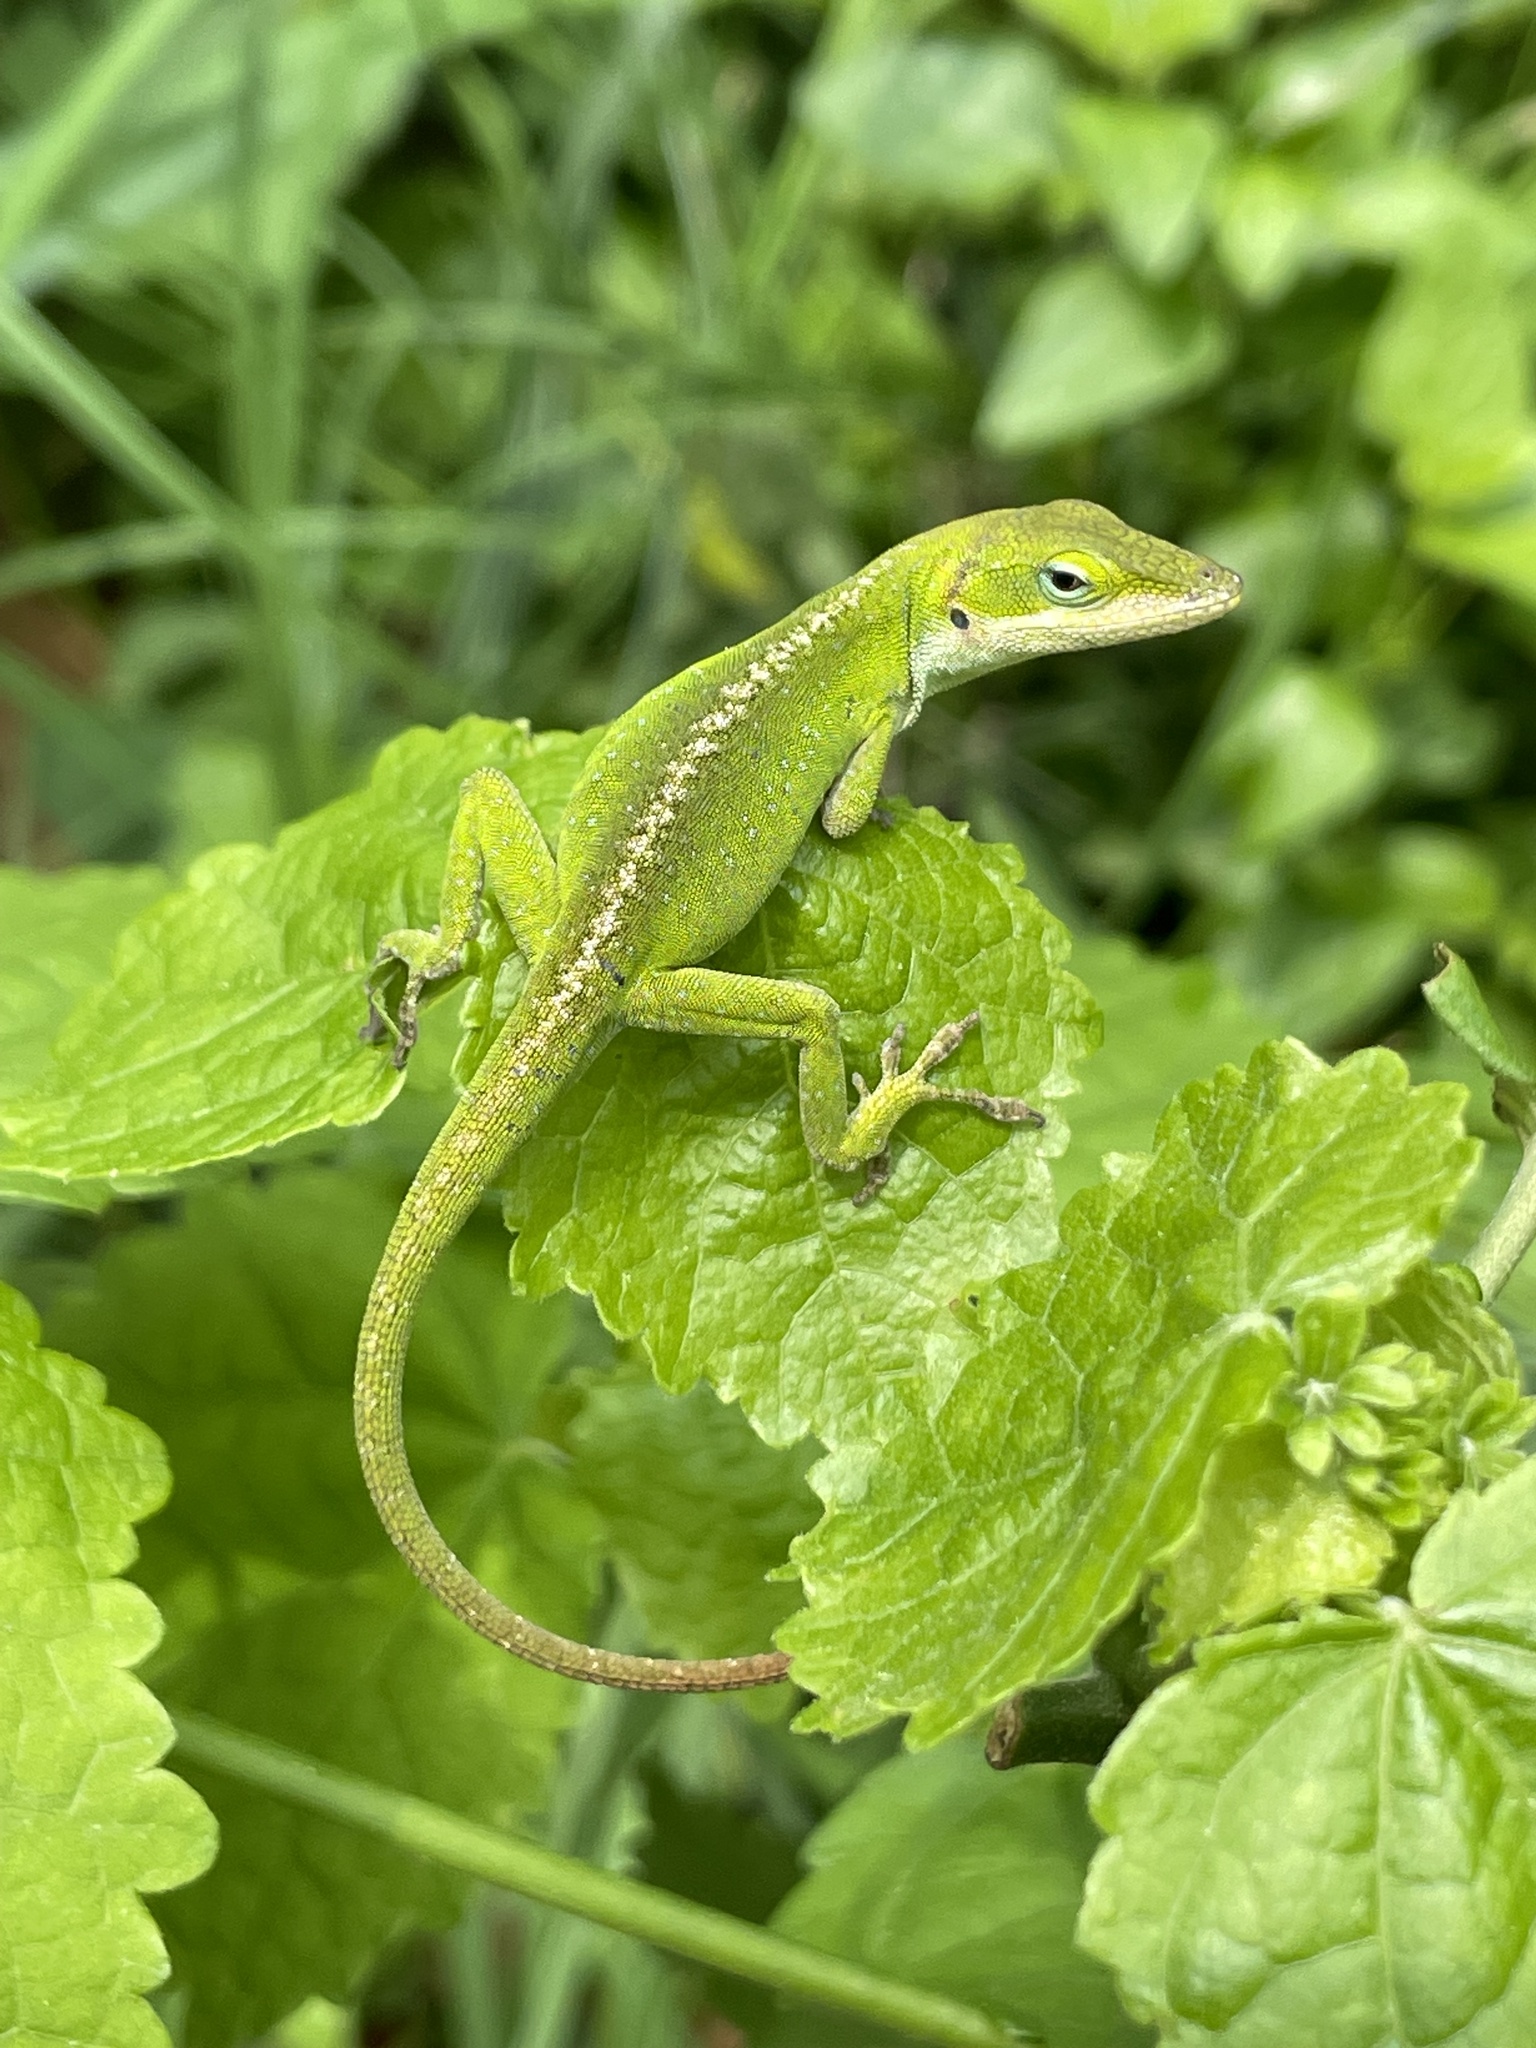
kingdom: Animalia
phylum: Chordata
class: Squamata
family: Dactyloidae
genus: Anolis
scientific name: Anolis carolinensis
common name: Green anole
